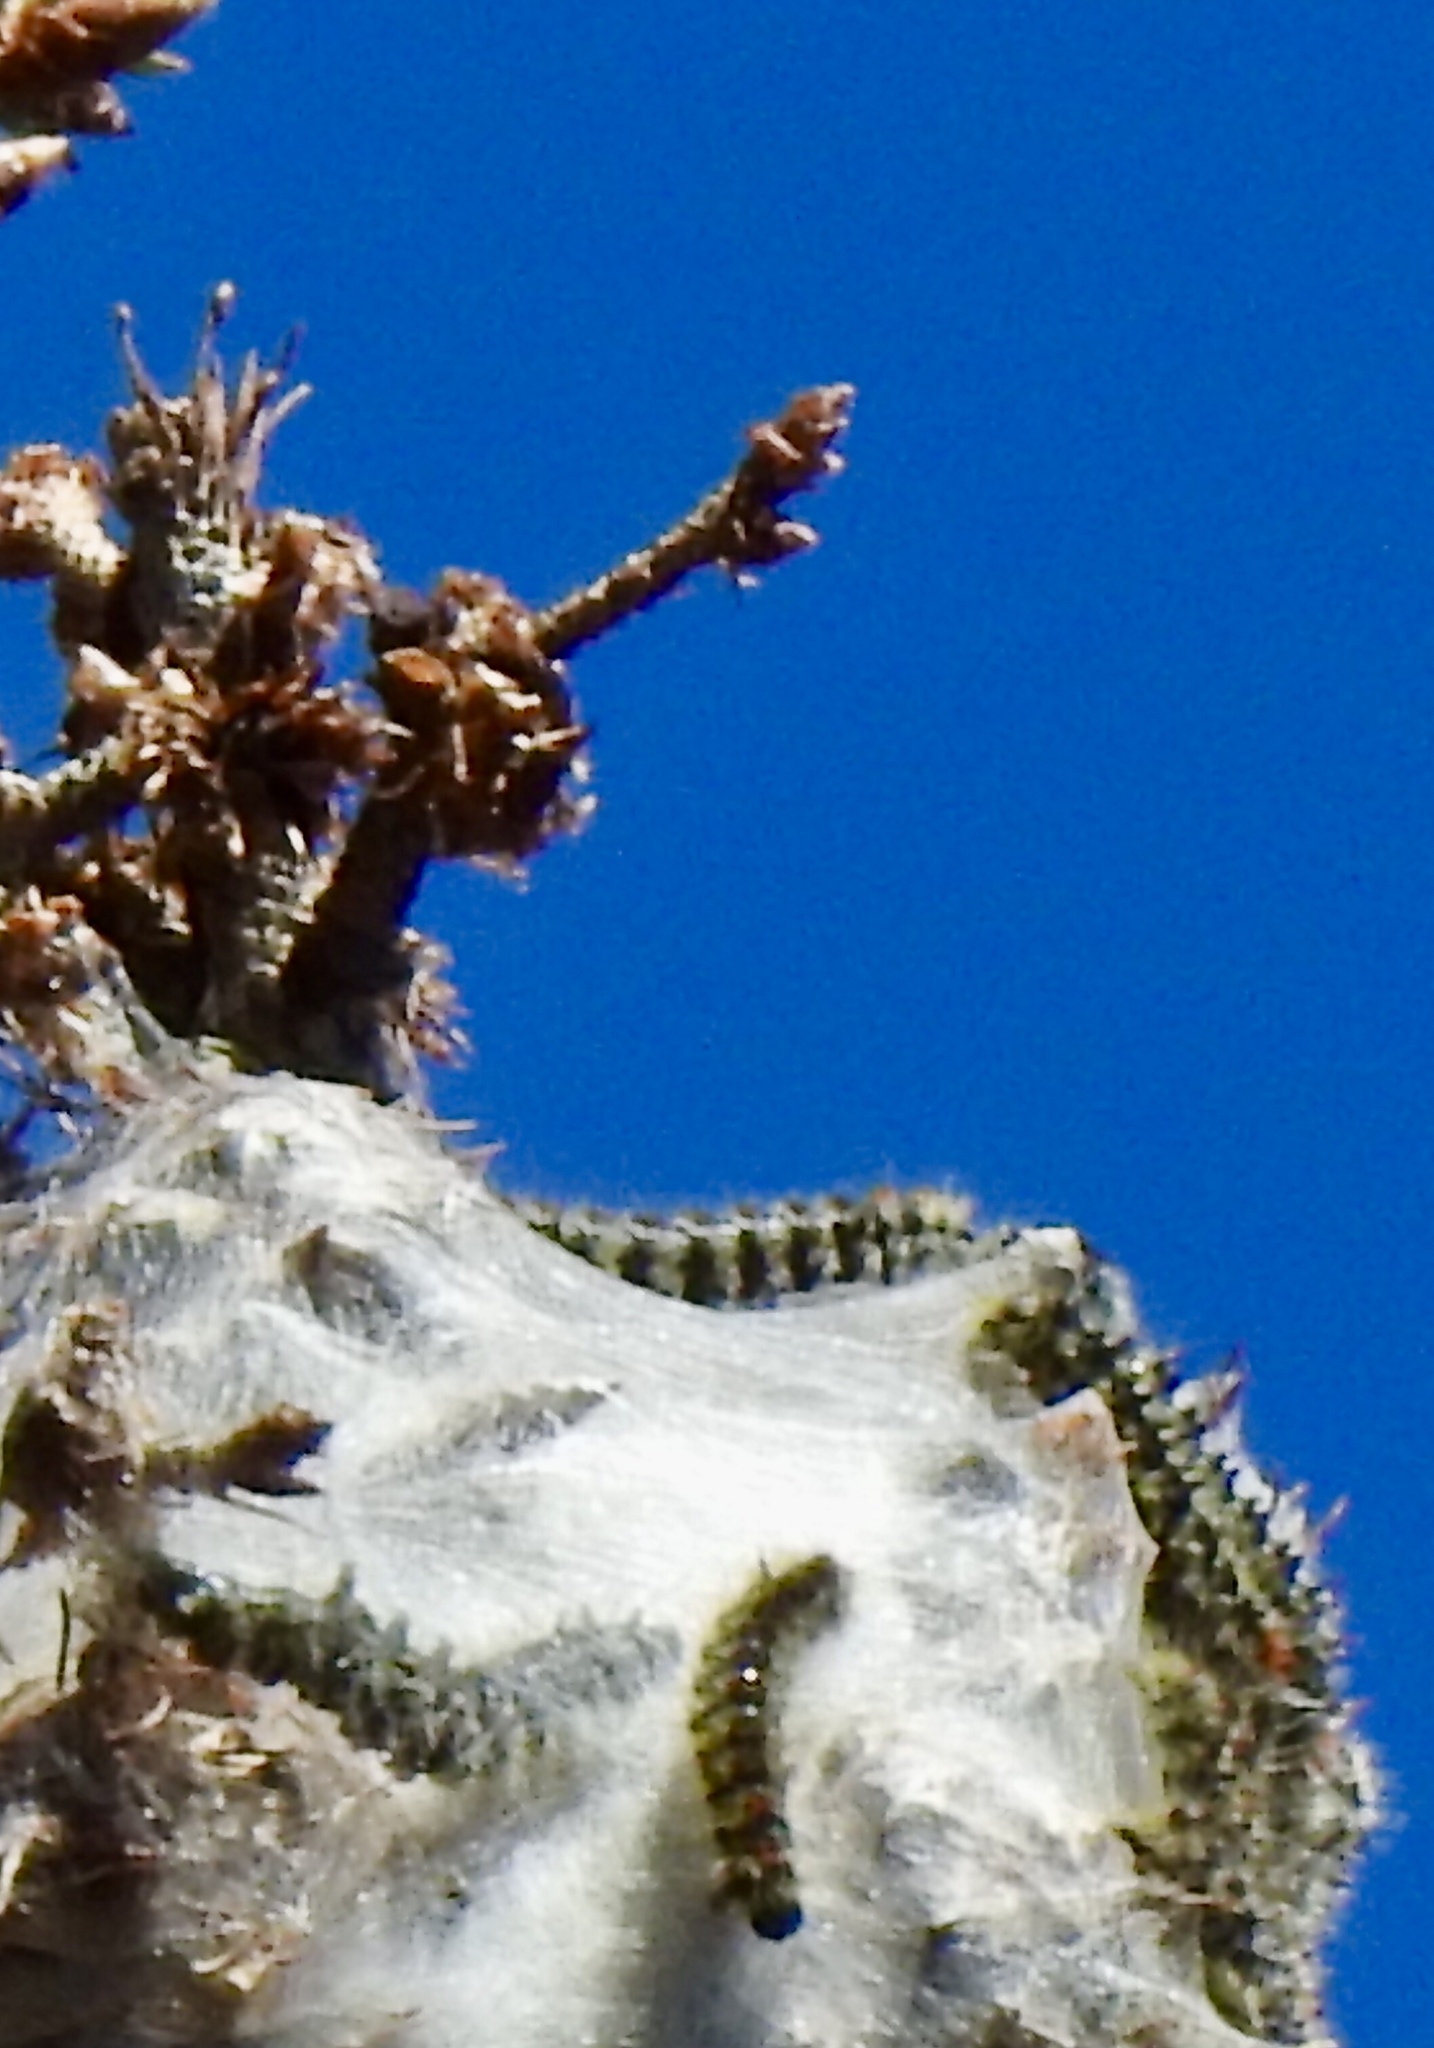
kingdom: Animalia
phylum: Arthropoda
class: Insecta
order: Lepidoptera
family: Erebidae
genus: Lophocampa
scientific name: Lophocampa ingens
